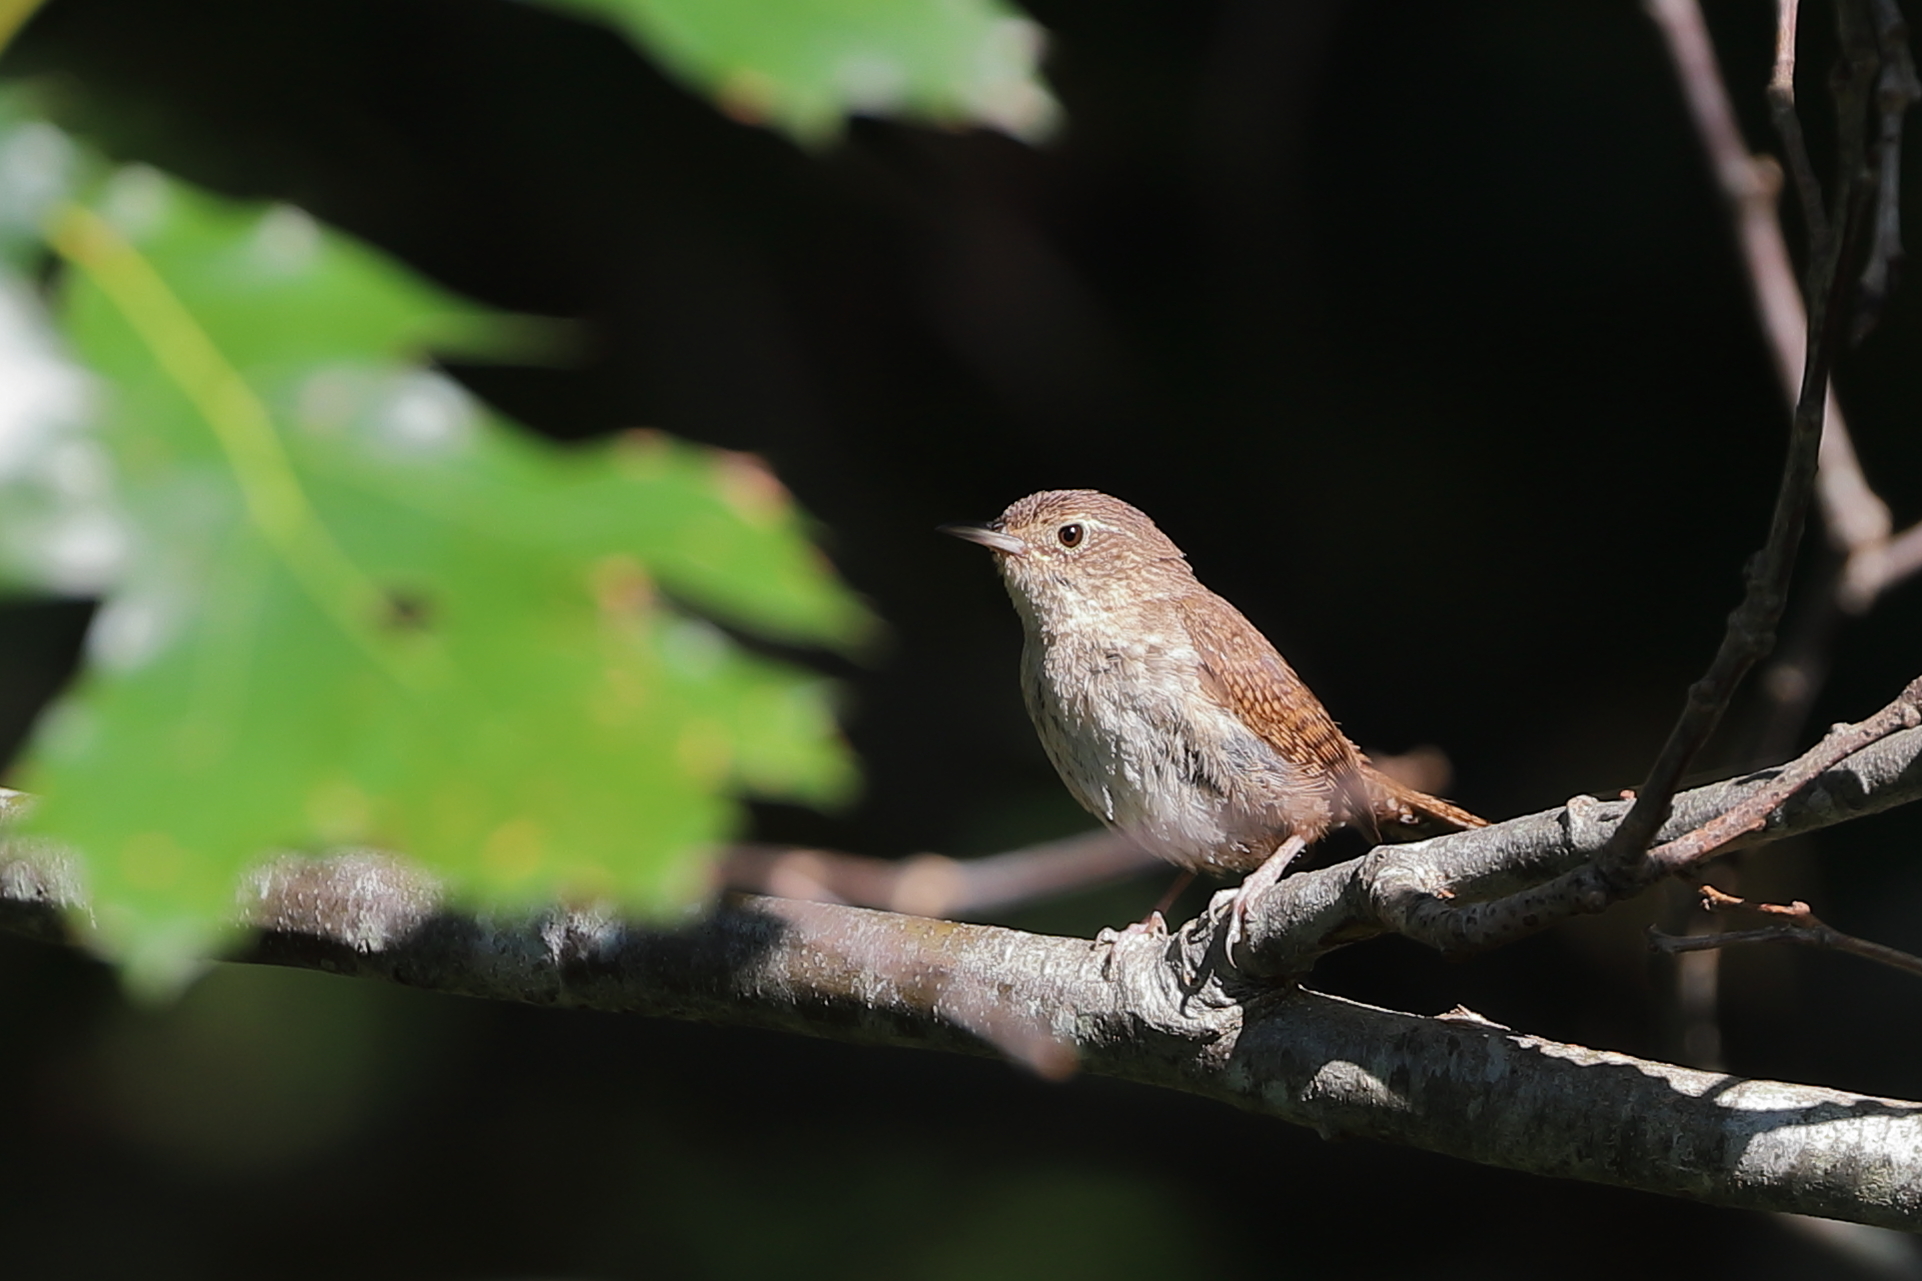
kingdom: Animalia
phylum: Chordata
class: Aves
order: Passeriformes
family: Troglodytidae
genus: Troglodytes
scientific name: Troglodytes aedon
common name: House wren
